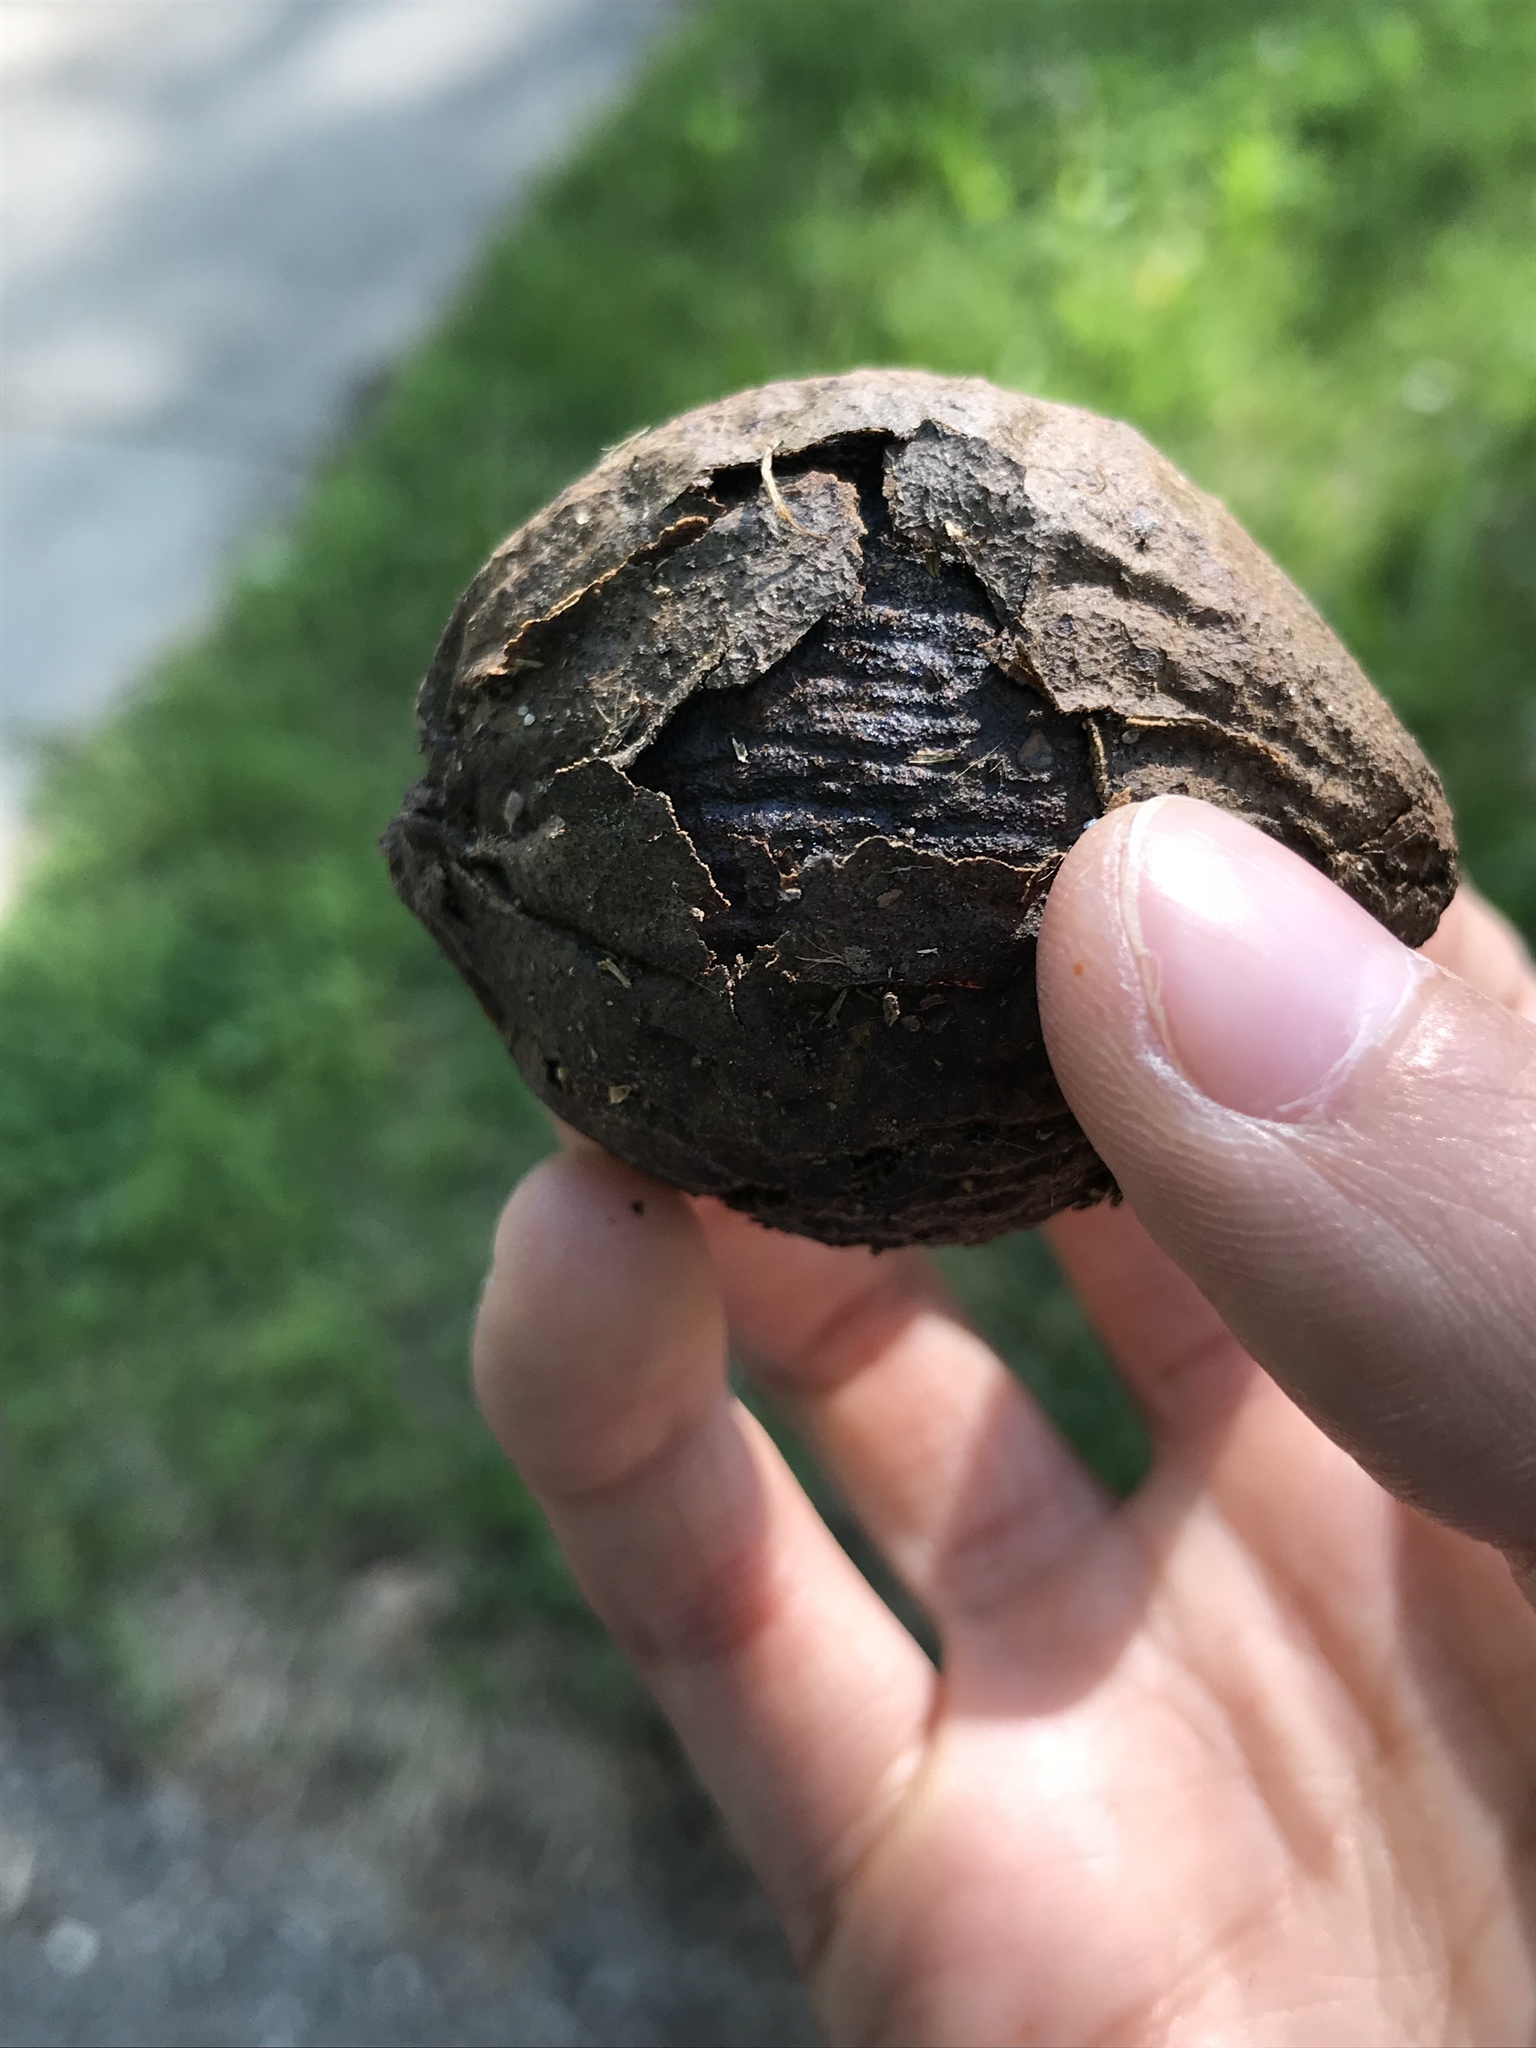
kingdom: Plantae
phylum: Tracheophyta
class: Magnoliopsida
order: Fagales
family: Juglandaceae
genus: Juglans
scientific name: Juglans nigra
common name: Black walnut
